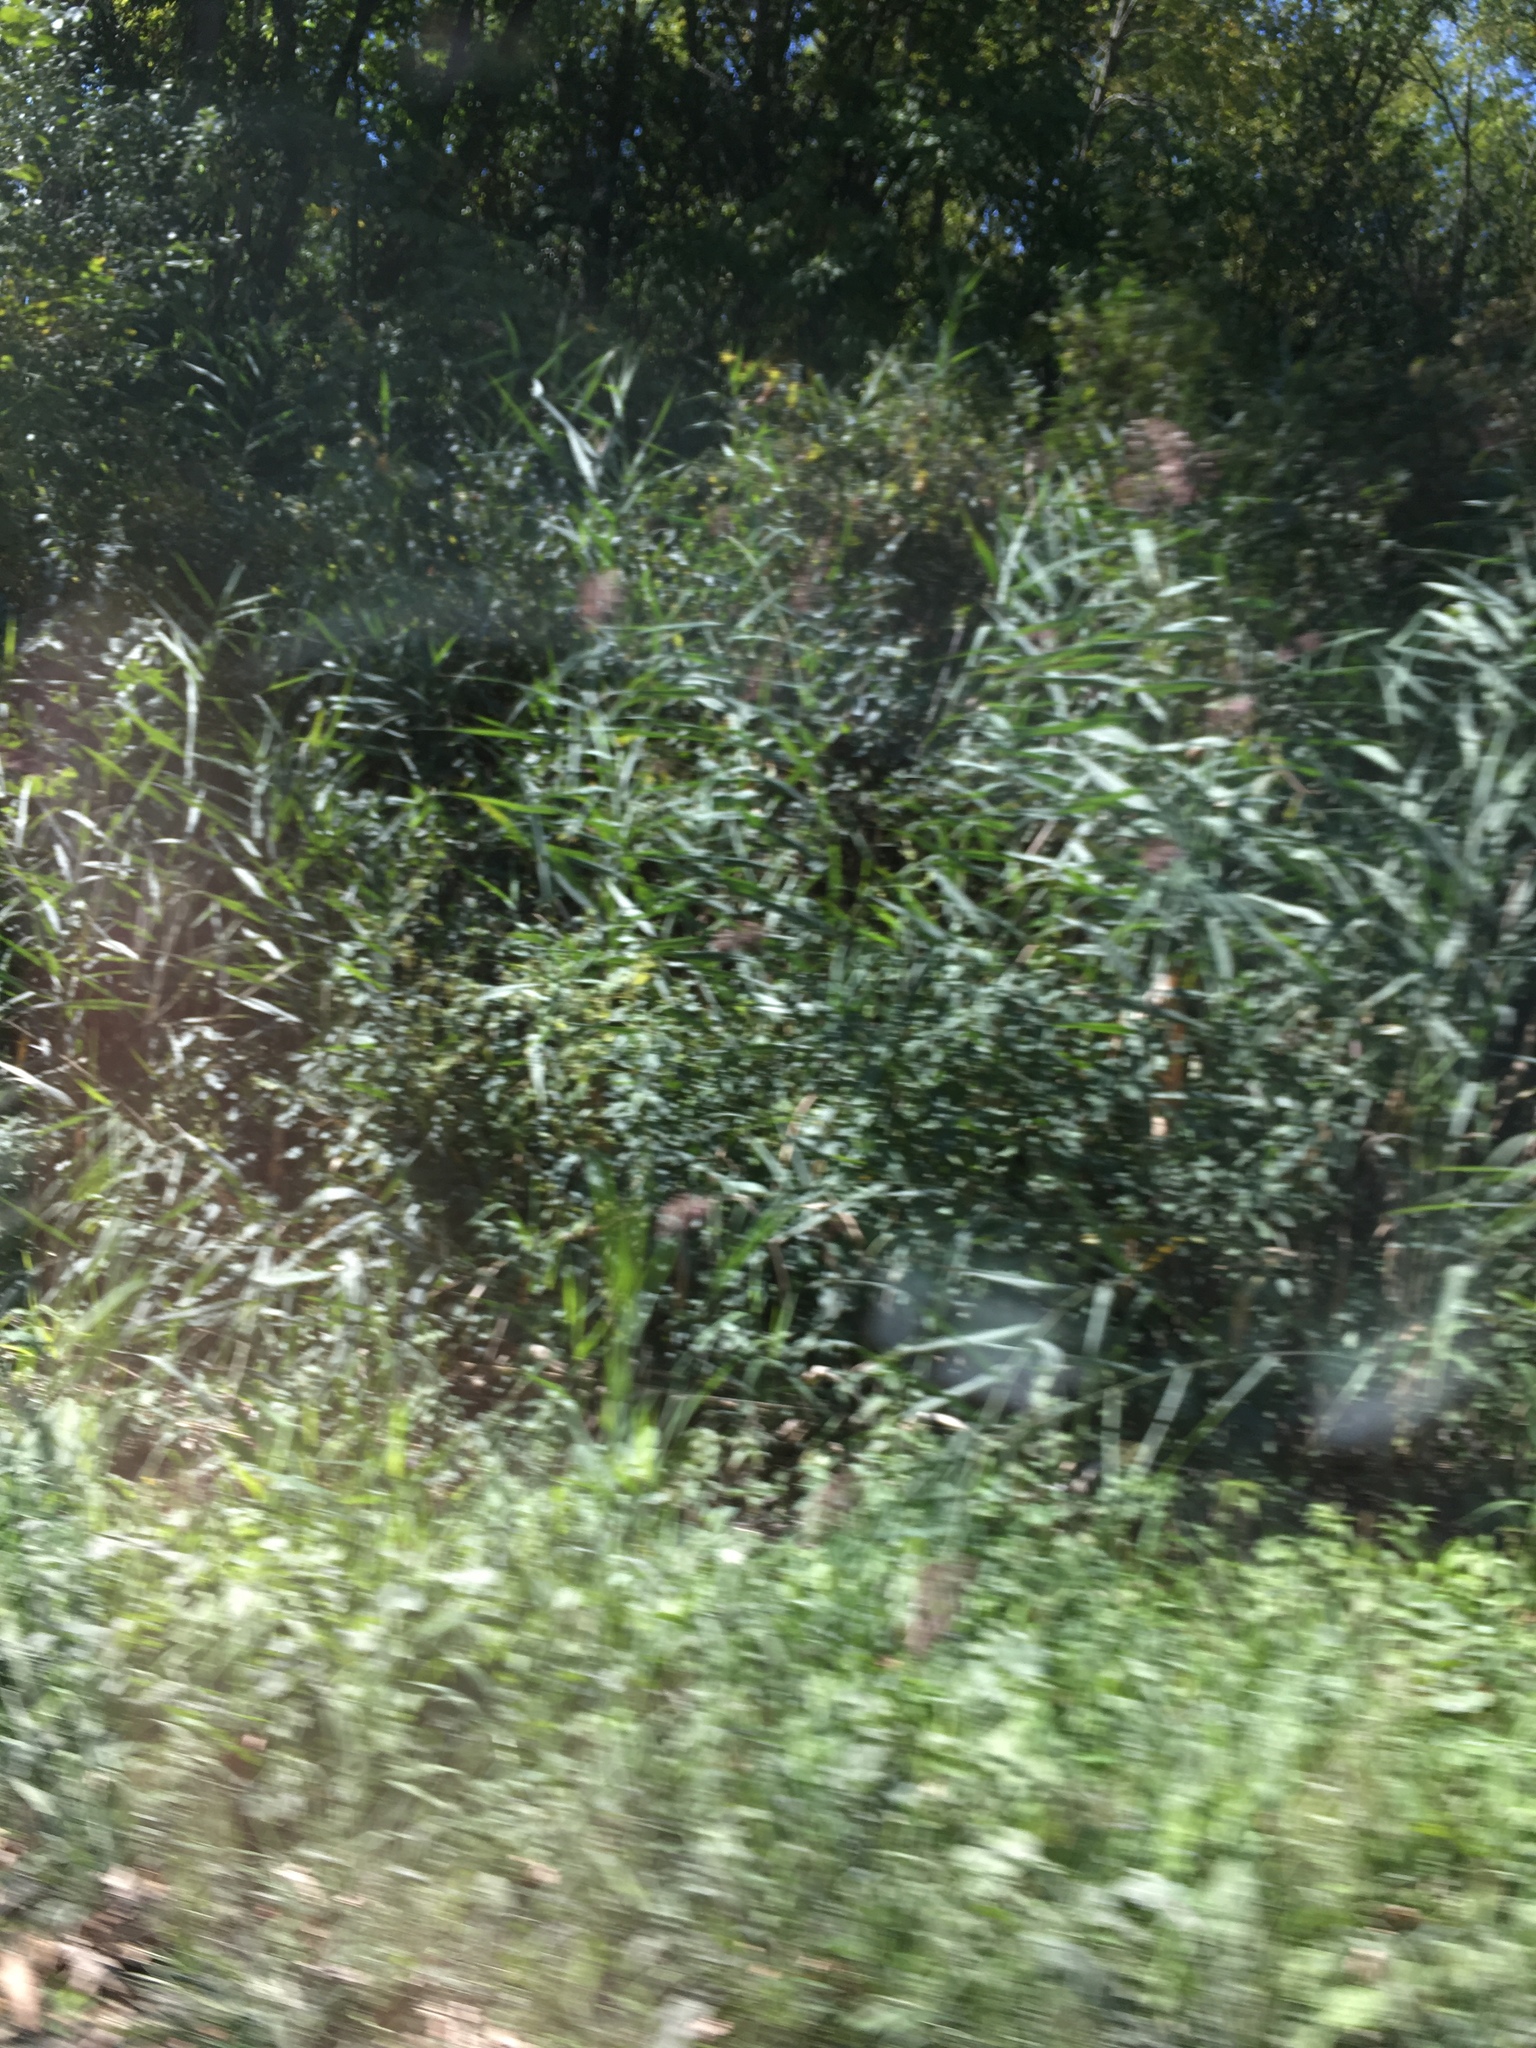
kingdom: Plantae
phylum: Tracheophyta
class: Liliopsida
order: Poales
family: Poaceae
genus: Phragmites
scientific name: Phragmites australis
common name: Common reed
